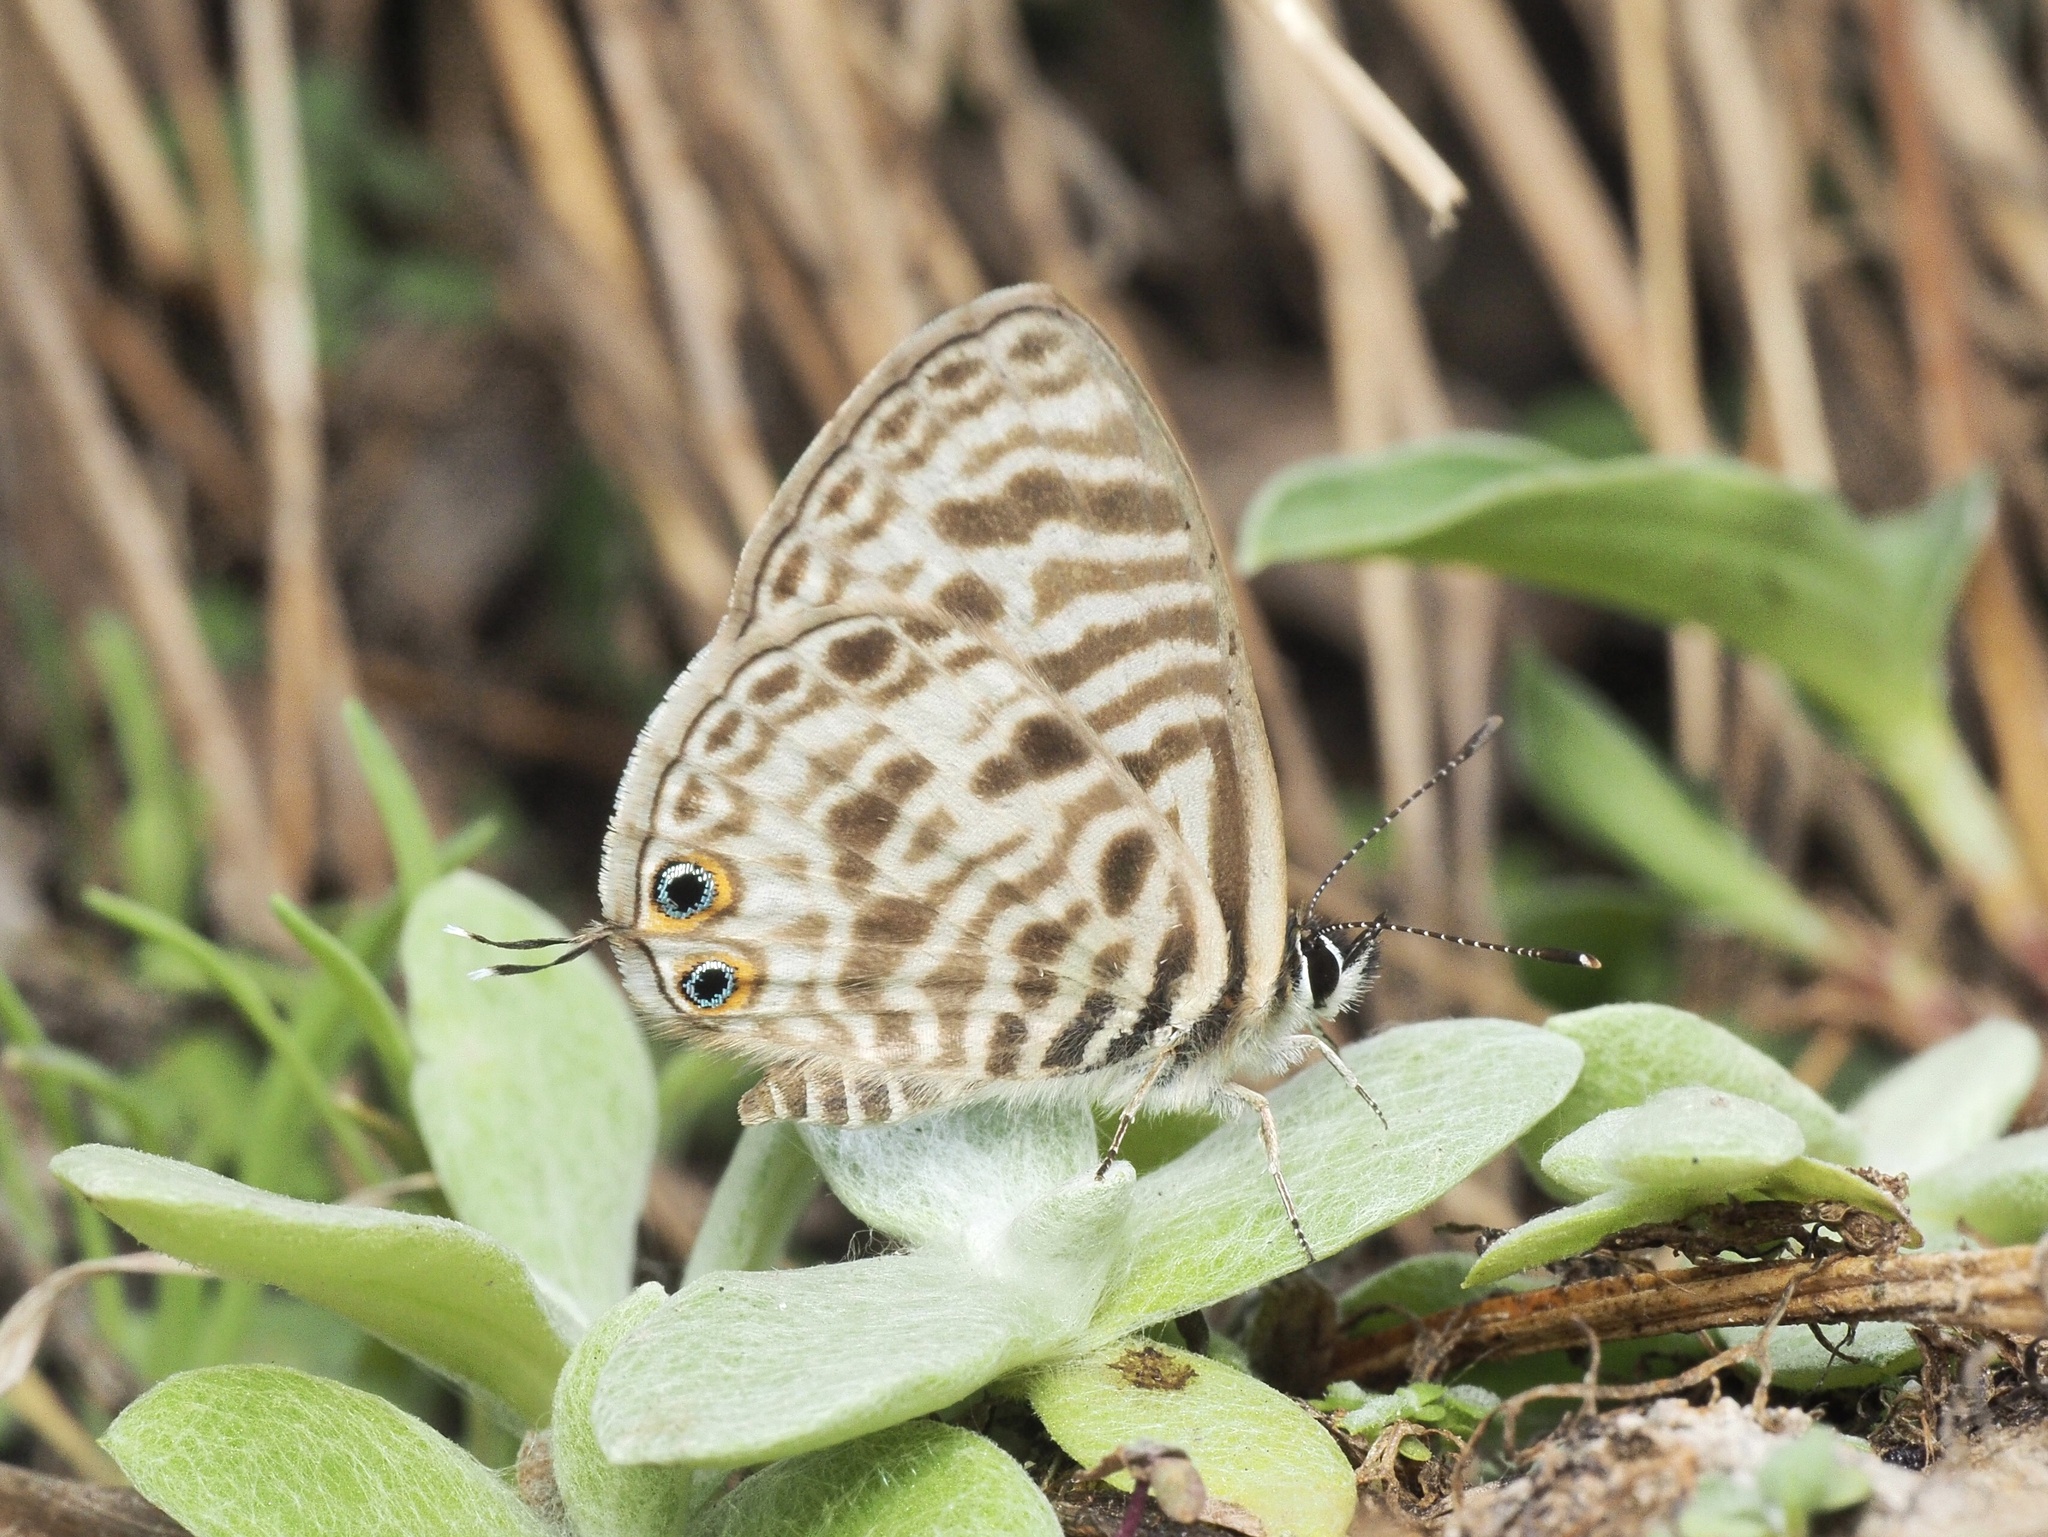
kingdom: Animalia
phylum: Arthropoda
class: Insecta
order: Lepidoptera
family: Lycaenidae
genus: Leptotes
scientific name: Leptotes
